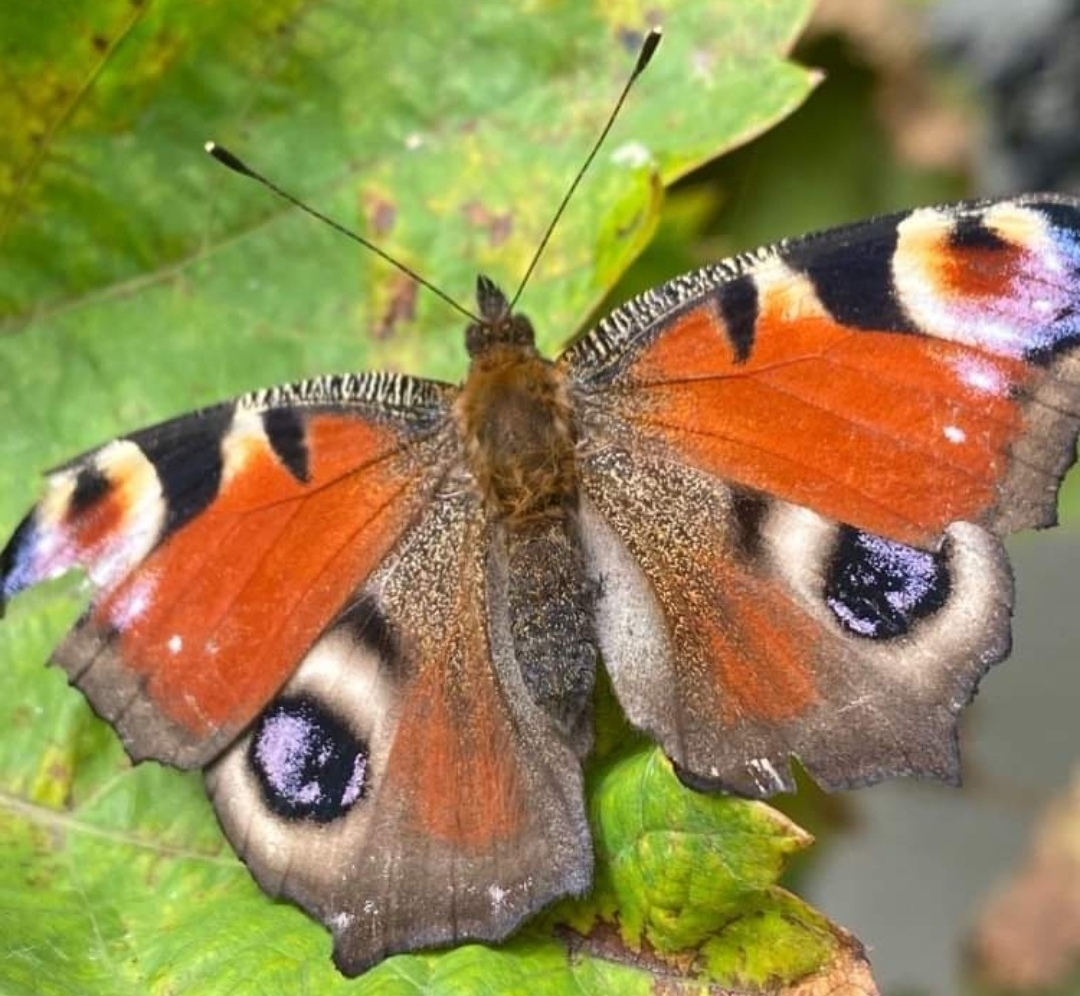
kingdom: Animalia
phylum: Arthropoda
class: Insecta
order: Lepidoptera
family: Nymphalidae
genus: Aglais
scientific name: Aglais io
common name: Peacock
